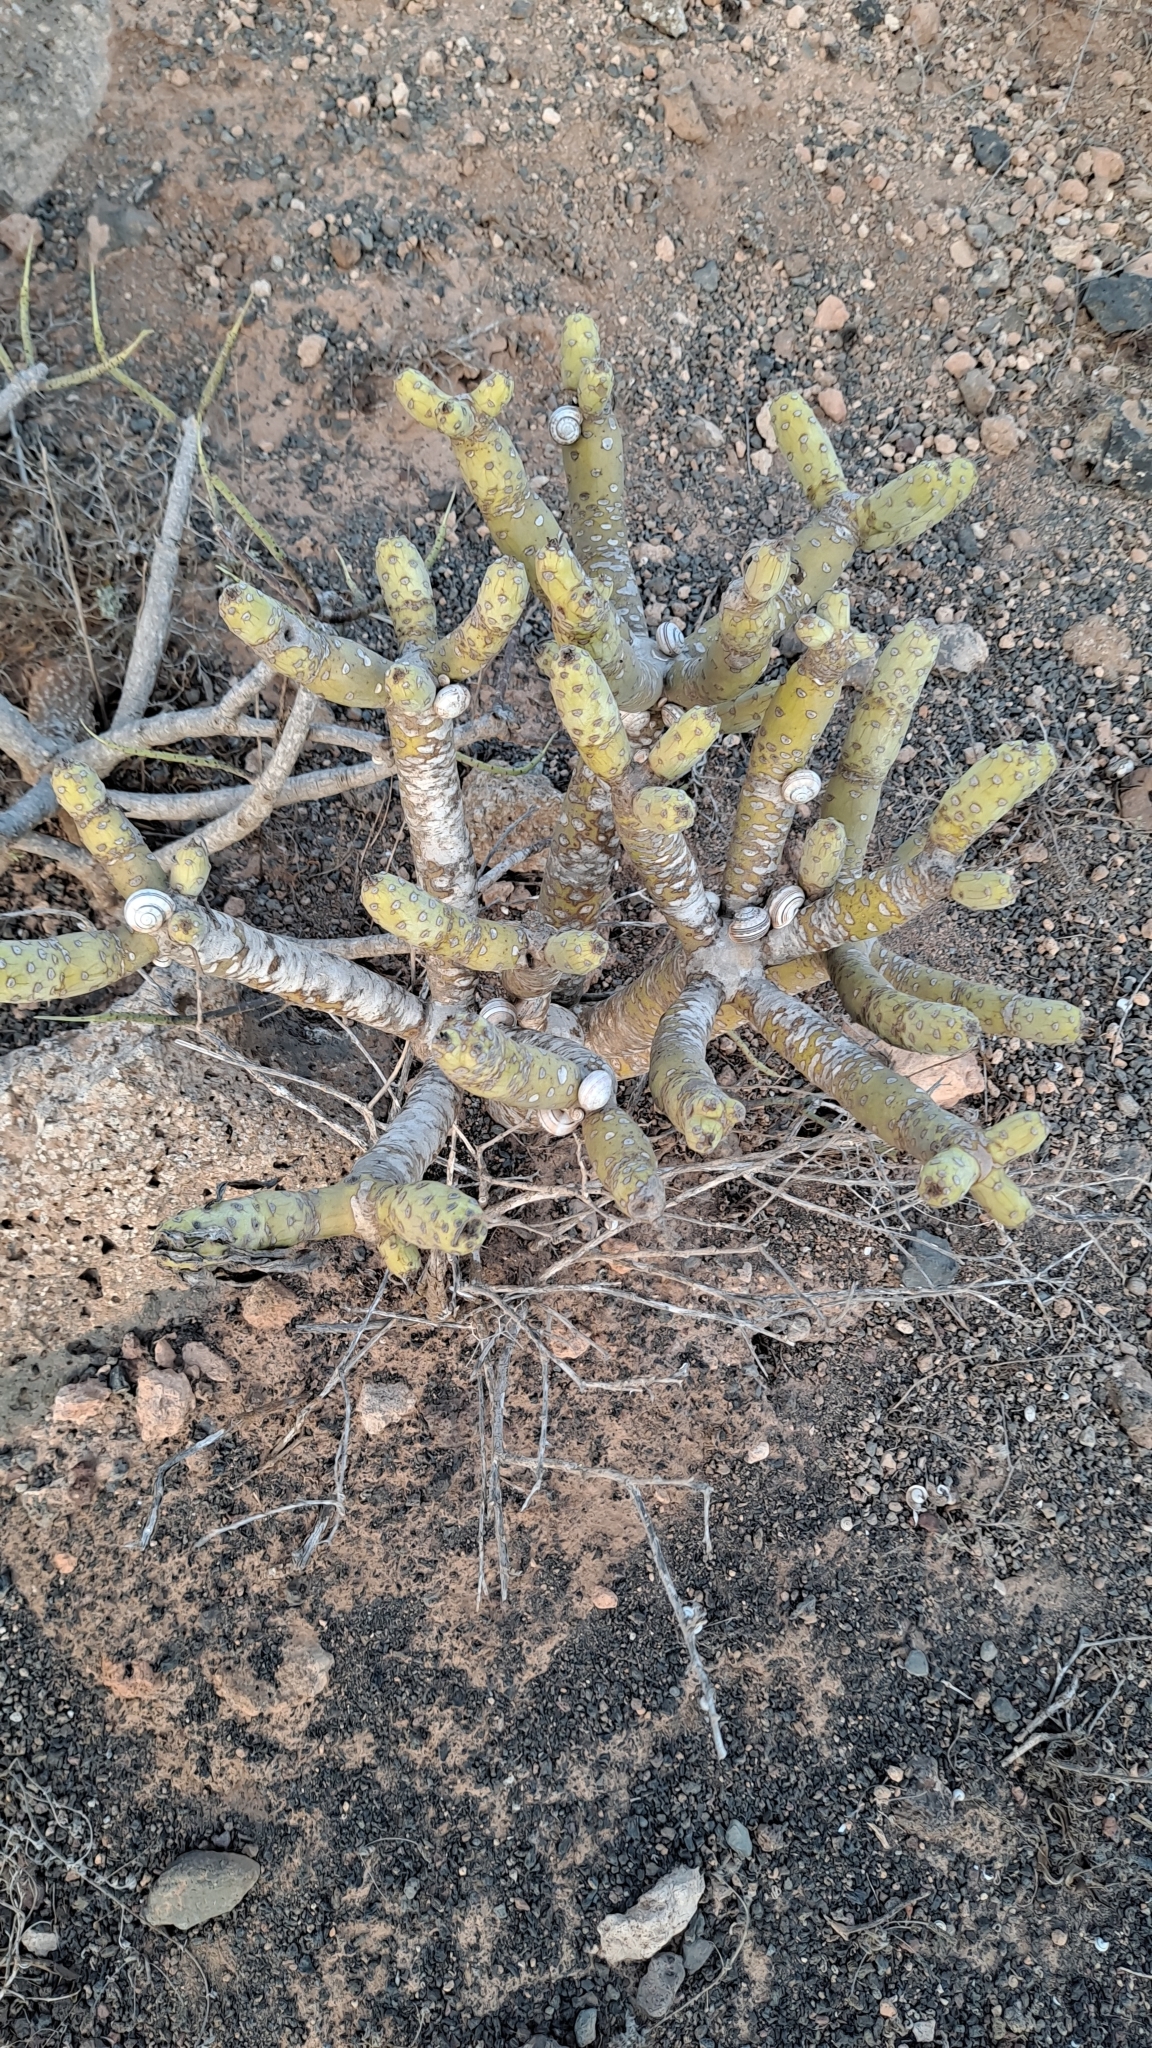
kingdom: Plantae
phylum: Tracheophyta
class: Magnoliopsida
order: Asterales
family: Asteraceae
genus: Kleinia
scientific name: Kleinia neriifolia
